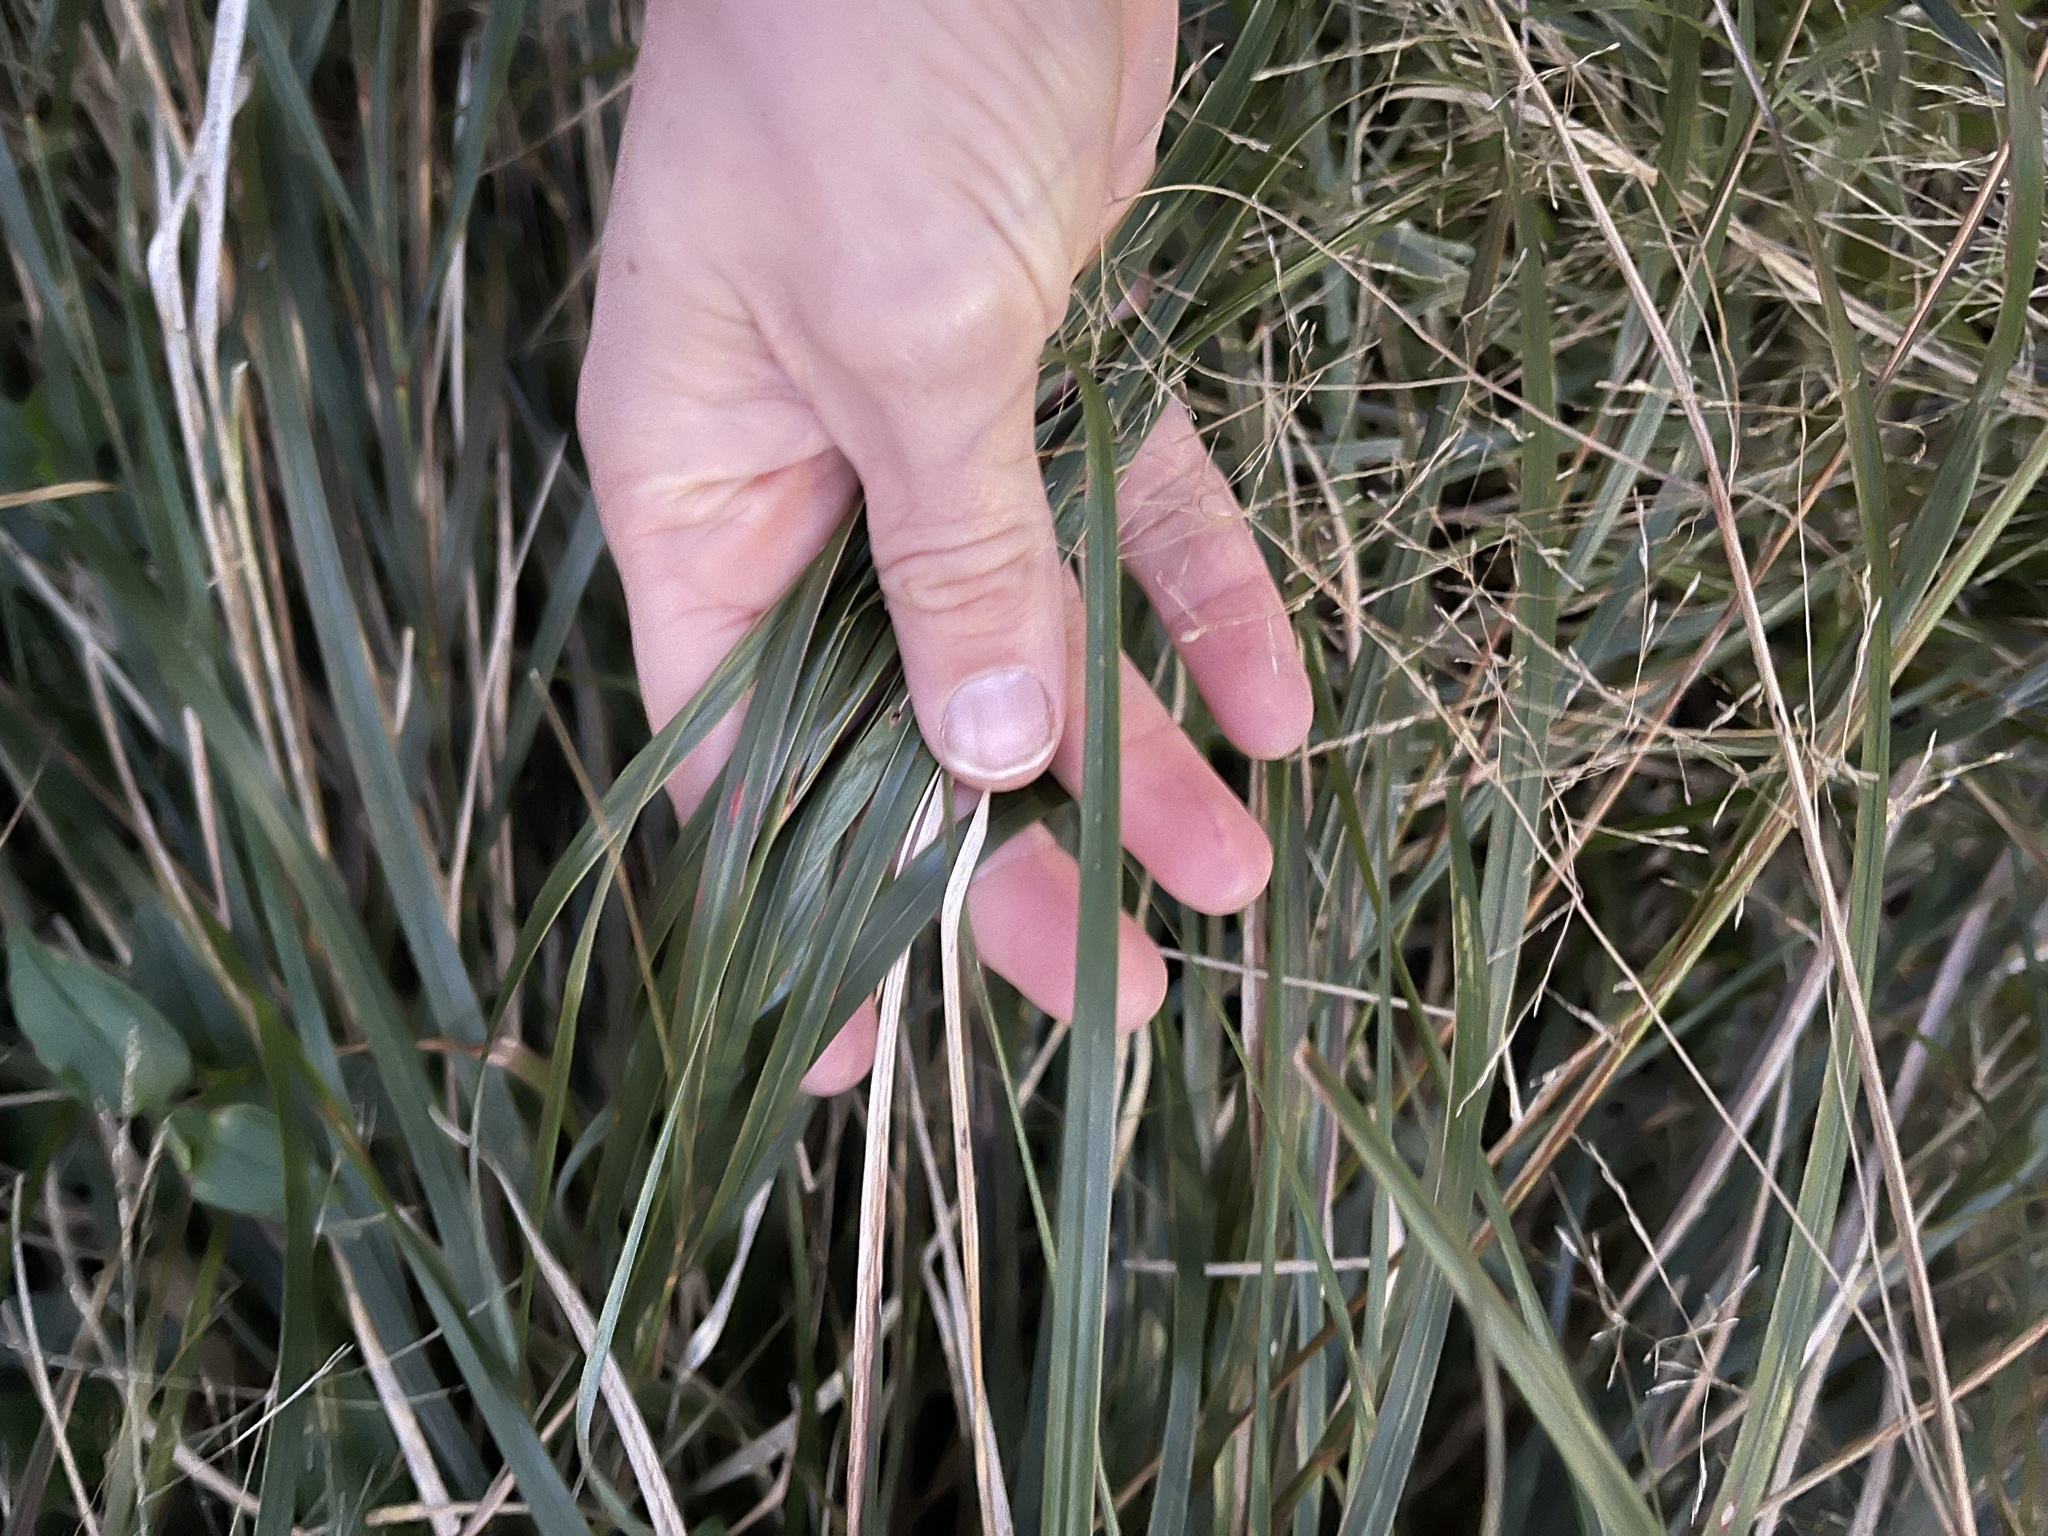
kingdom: Plantae
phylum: Tracheophyta
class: Liliopsida
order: Poales
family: Poaceae
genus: Anemanthele
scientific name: Anemanthele lessoniana
